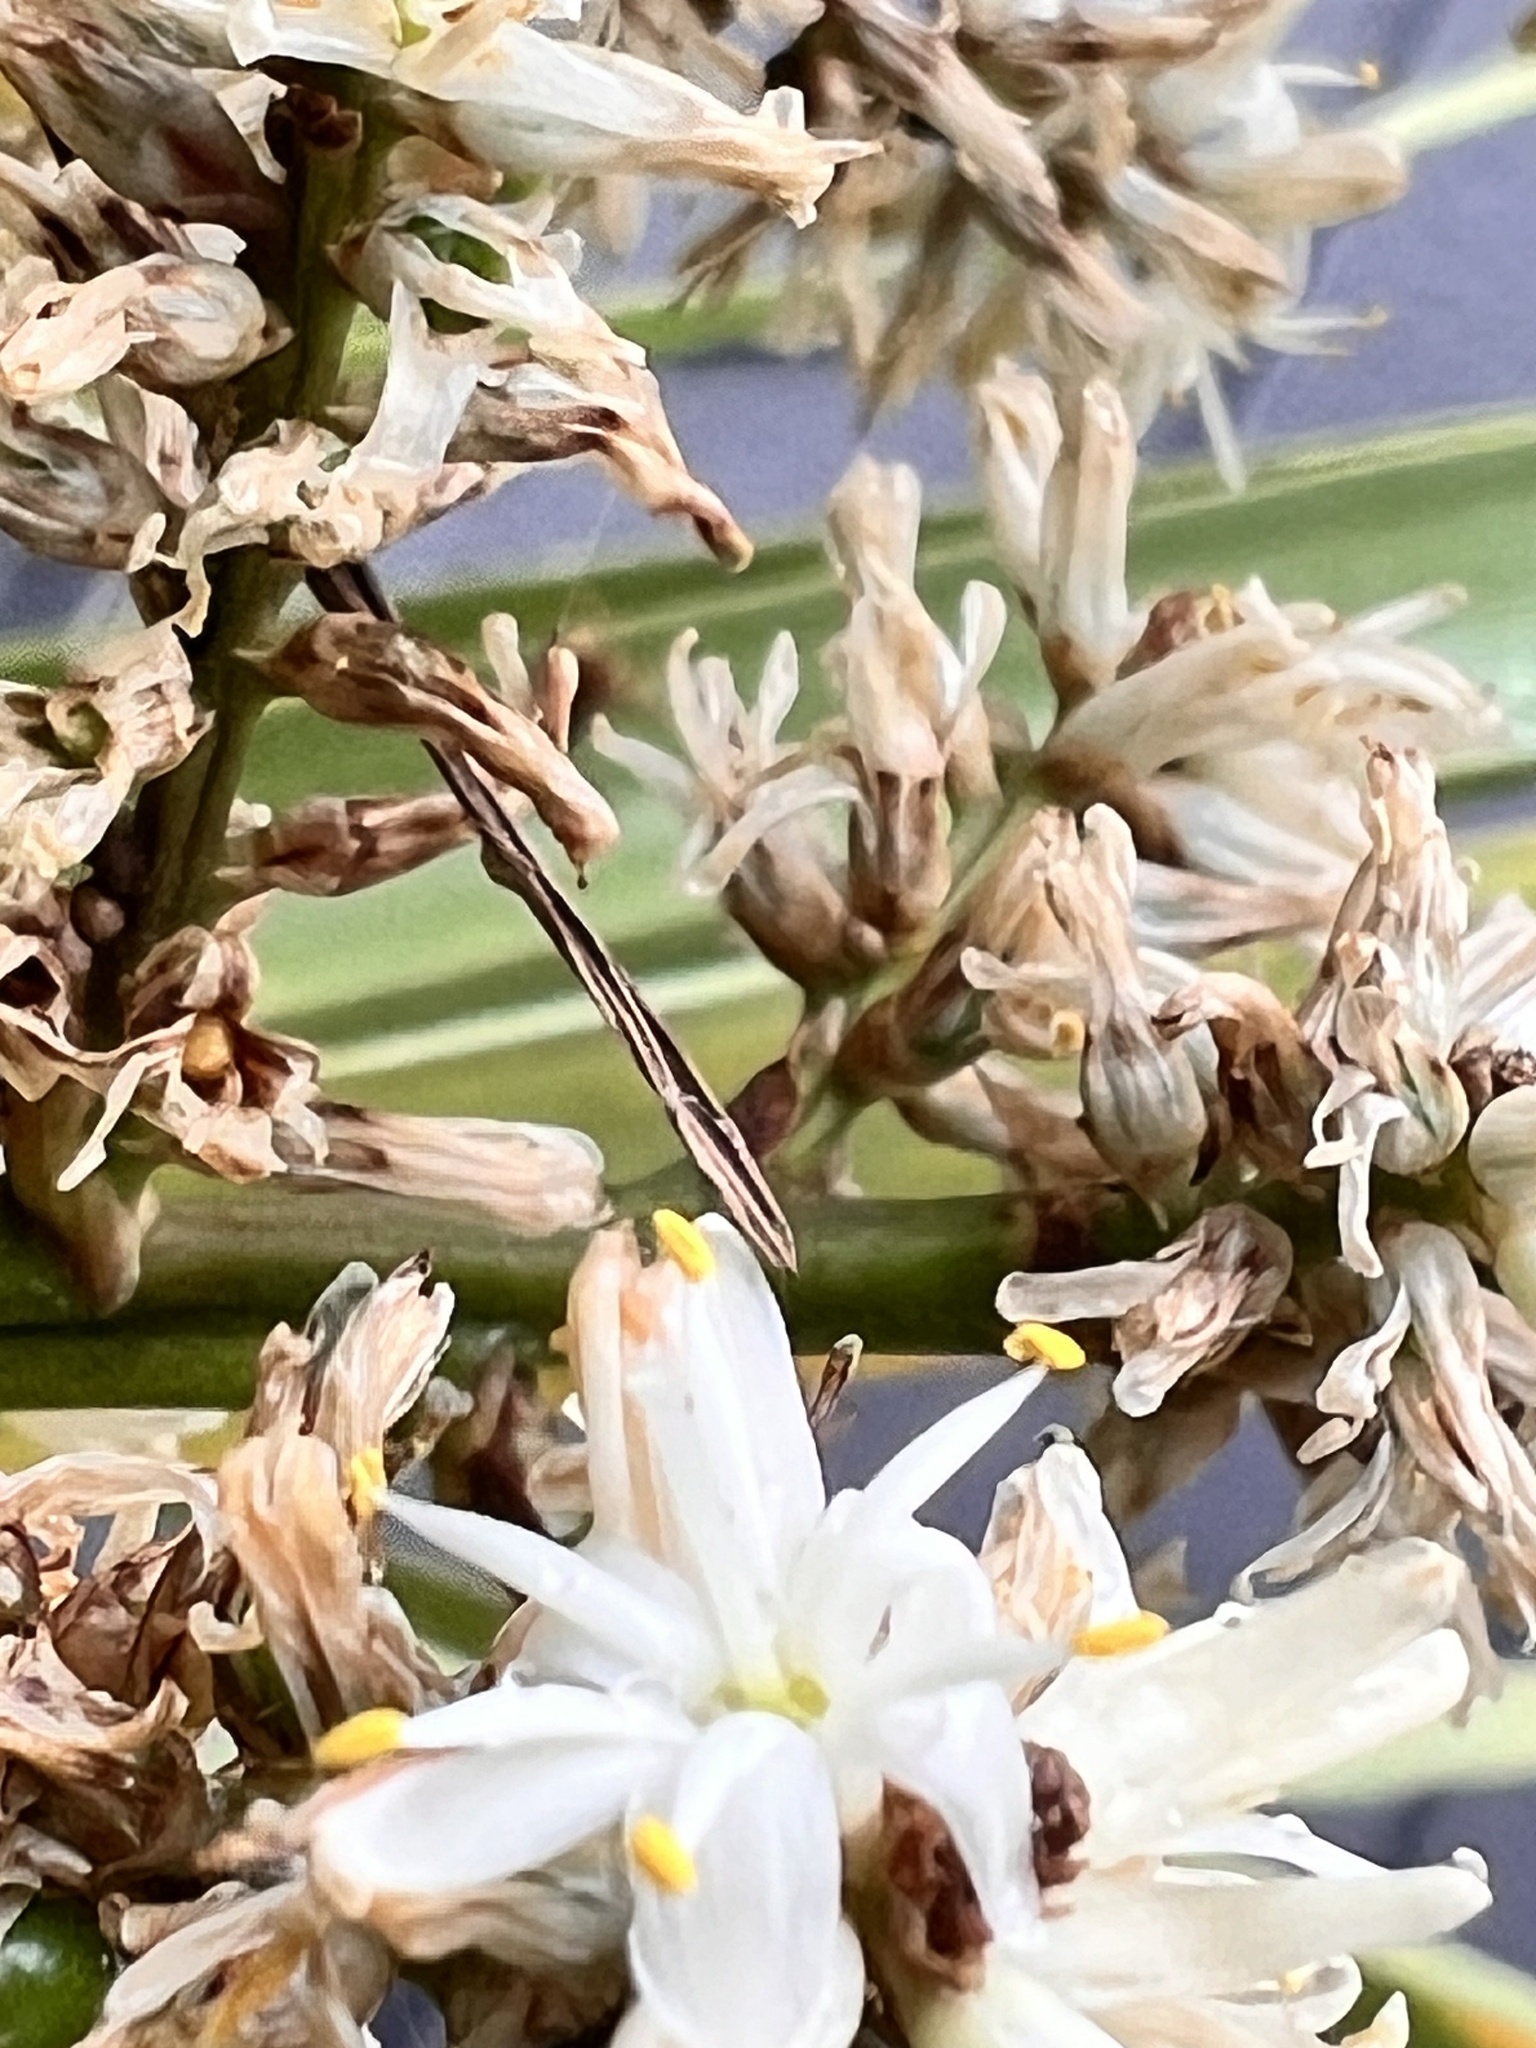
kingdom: Plantae
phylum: Tracheophyta
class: Liliopsida
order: Asparagales
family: Asparagaceae
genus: Cordyline
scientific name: Cordyline australis
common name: Cabbage-palm
